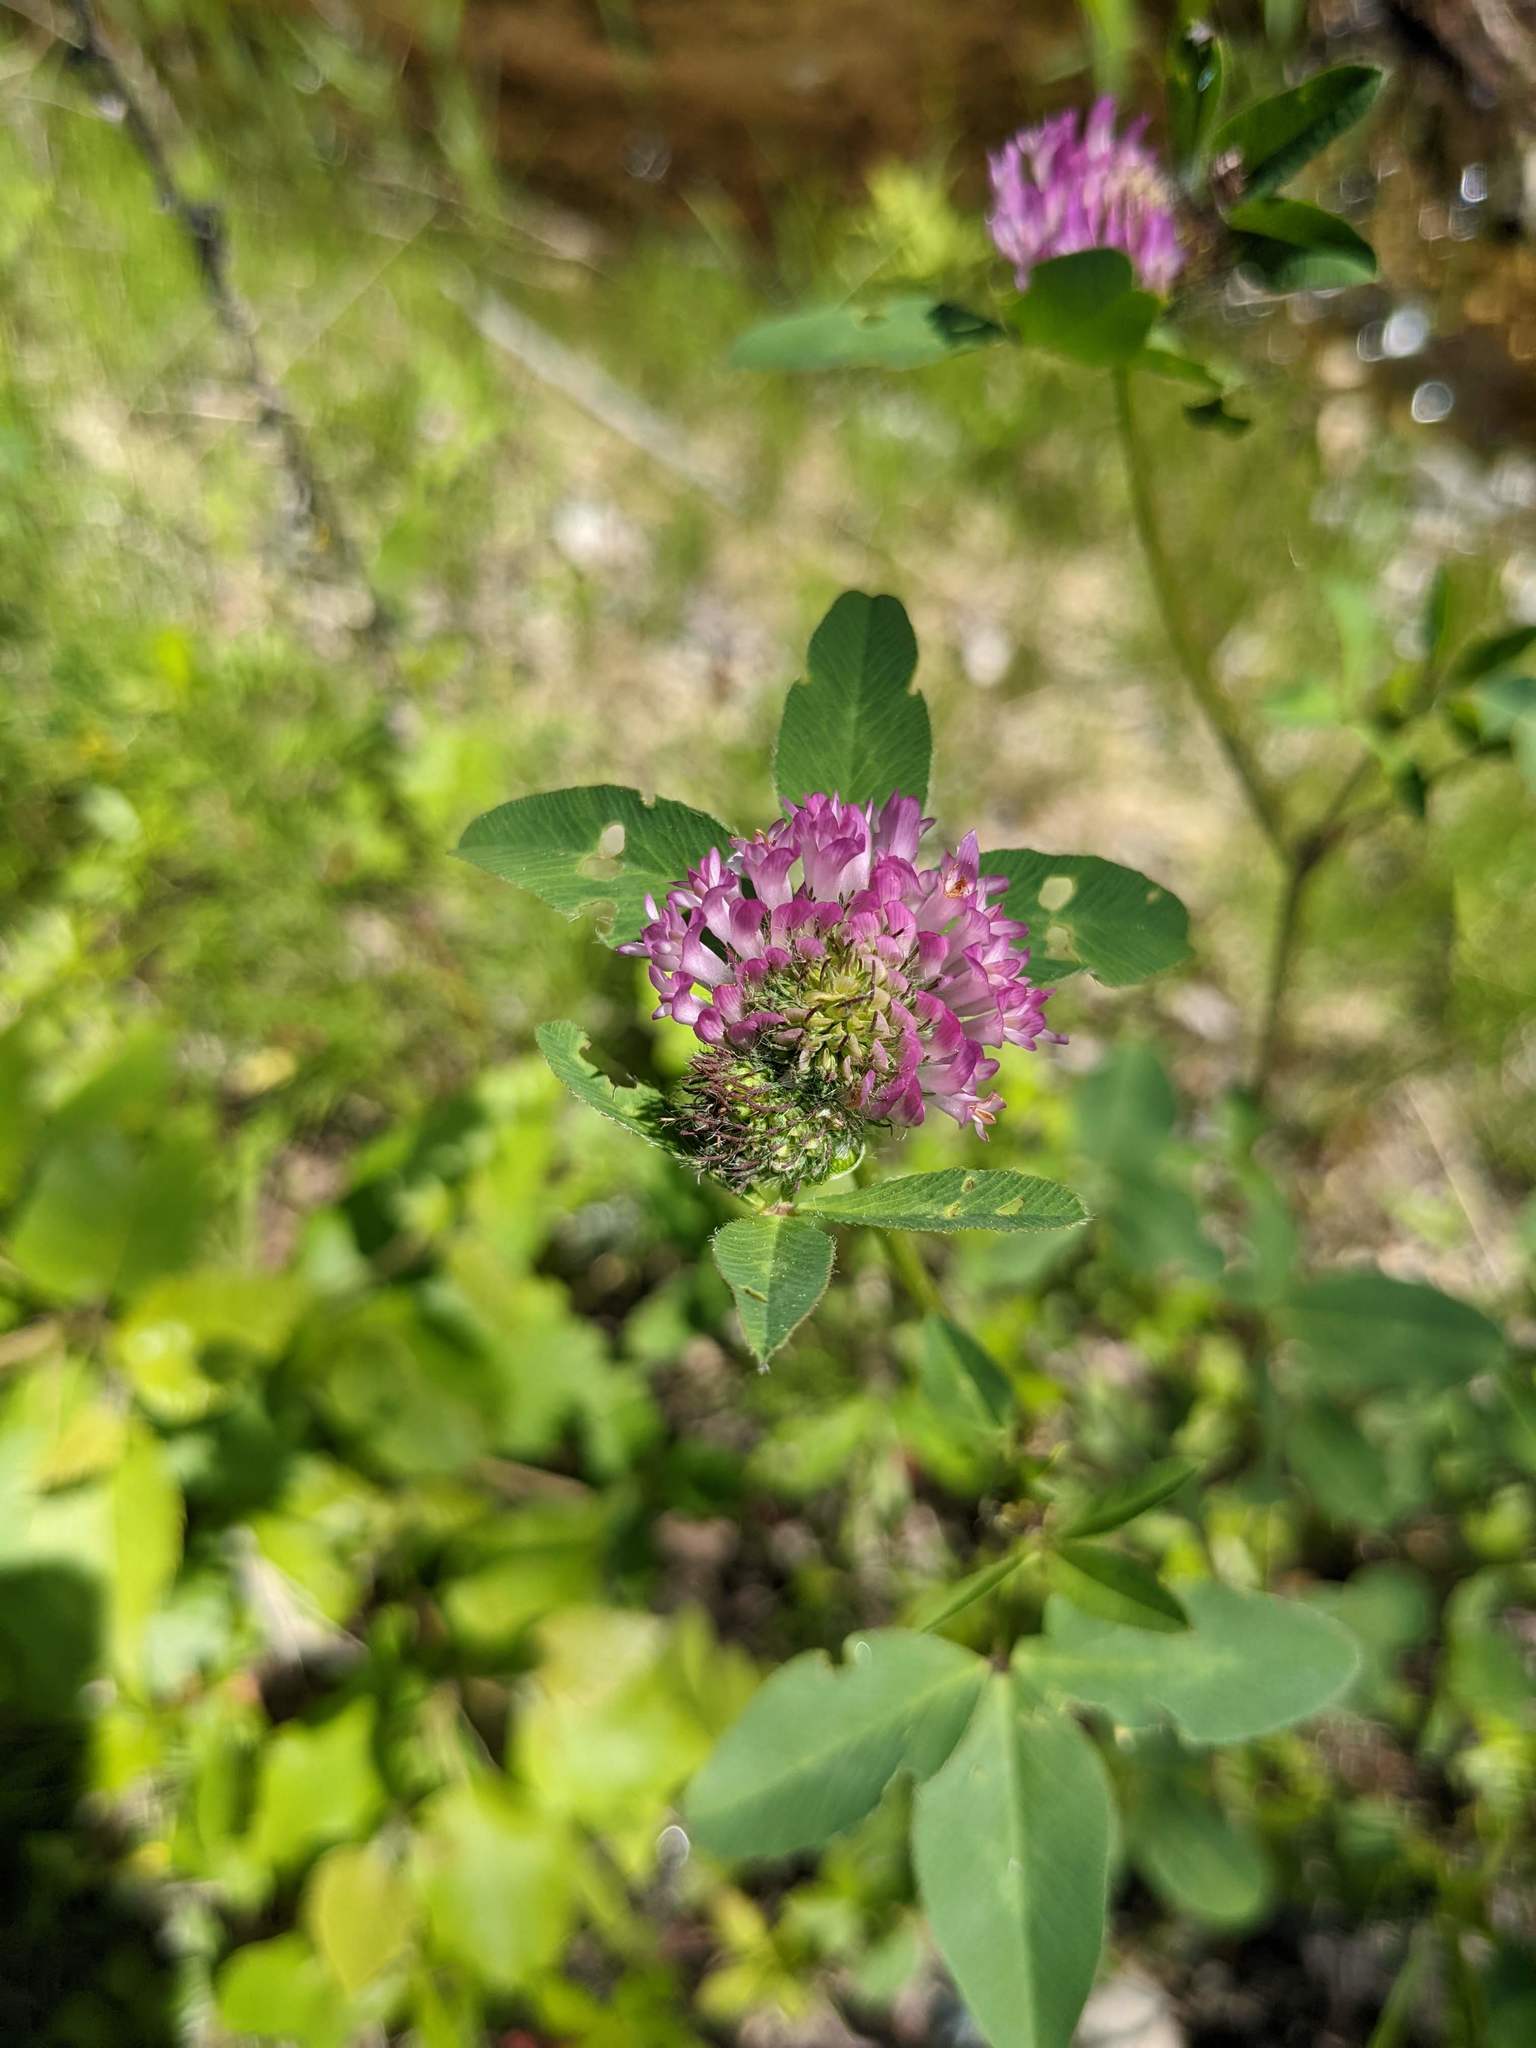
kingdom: Plantae
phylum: Tracheophyta
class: Magnoliopsida
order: Fabales
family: Fabaceae
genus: Trifolium
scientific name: Trifolium pratense
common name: Red clover
